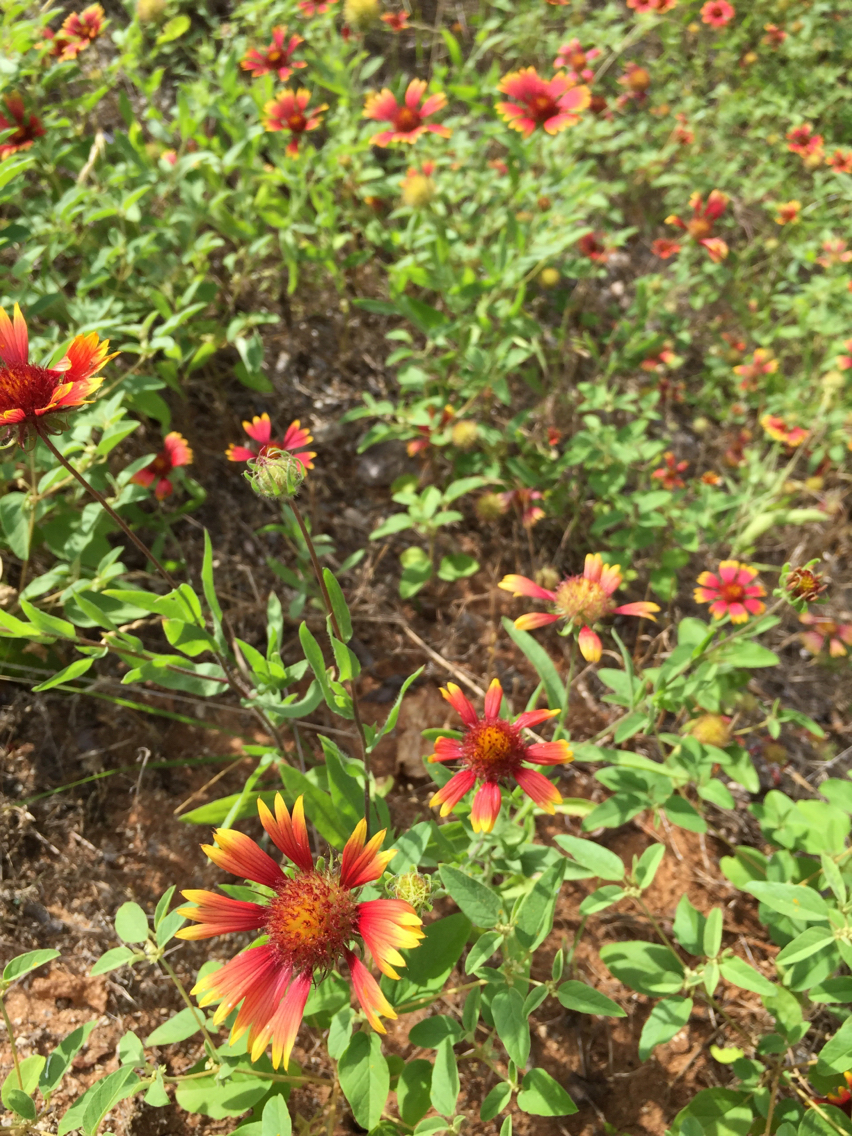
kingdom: Plantae
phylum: Tracheophyta
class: Magnoliopsida
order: Asterales
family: Asteraceae
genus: Gaillardia
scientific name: Gaillardia pulchella
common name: Firewheel
